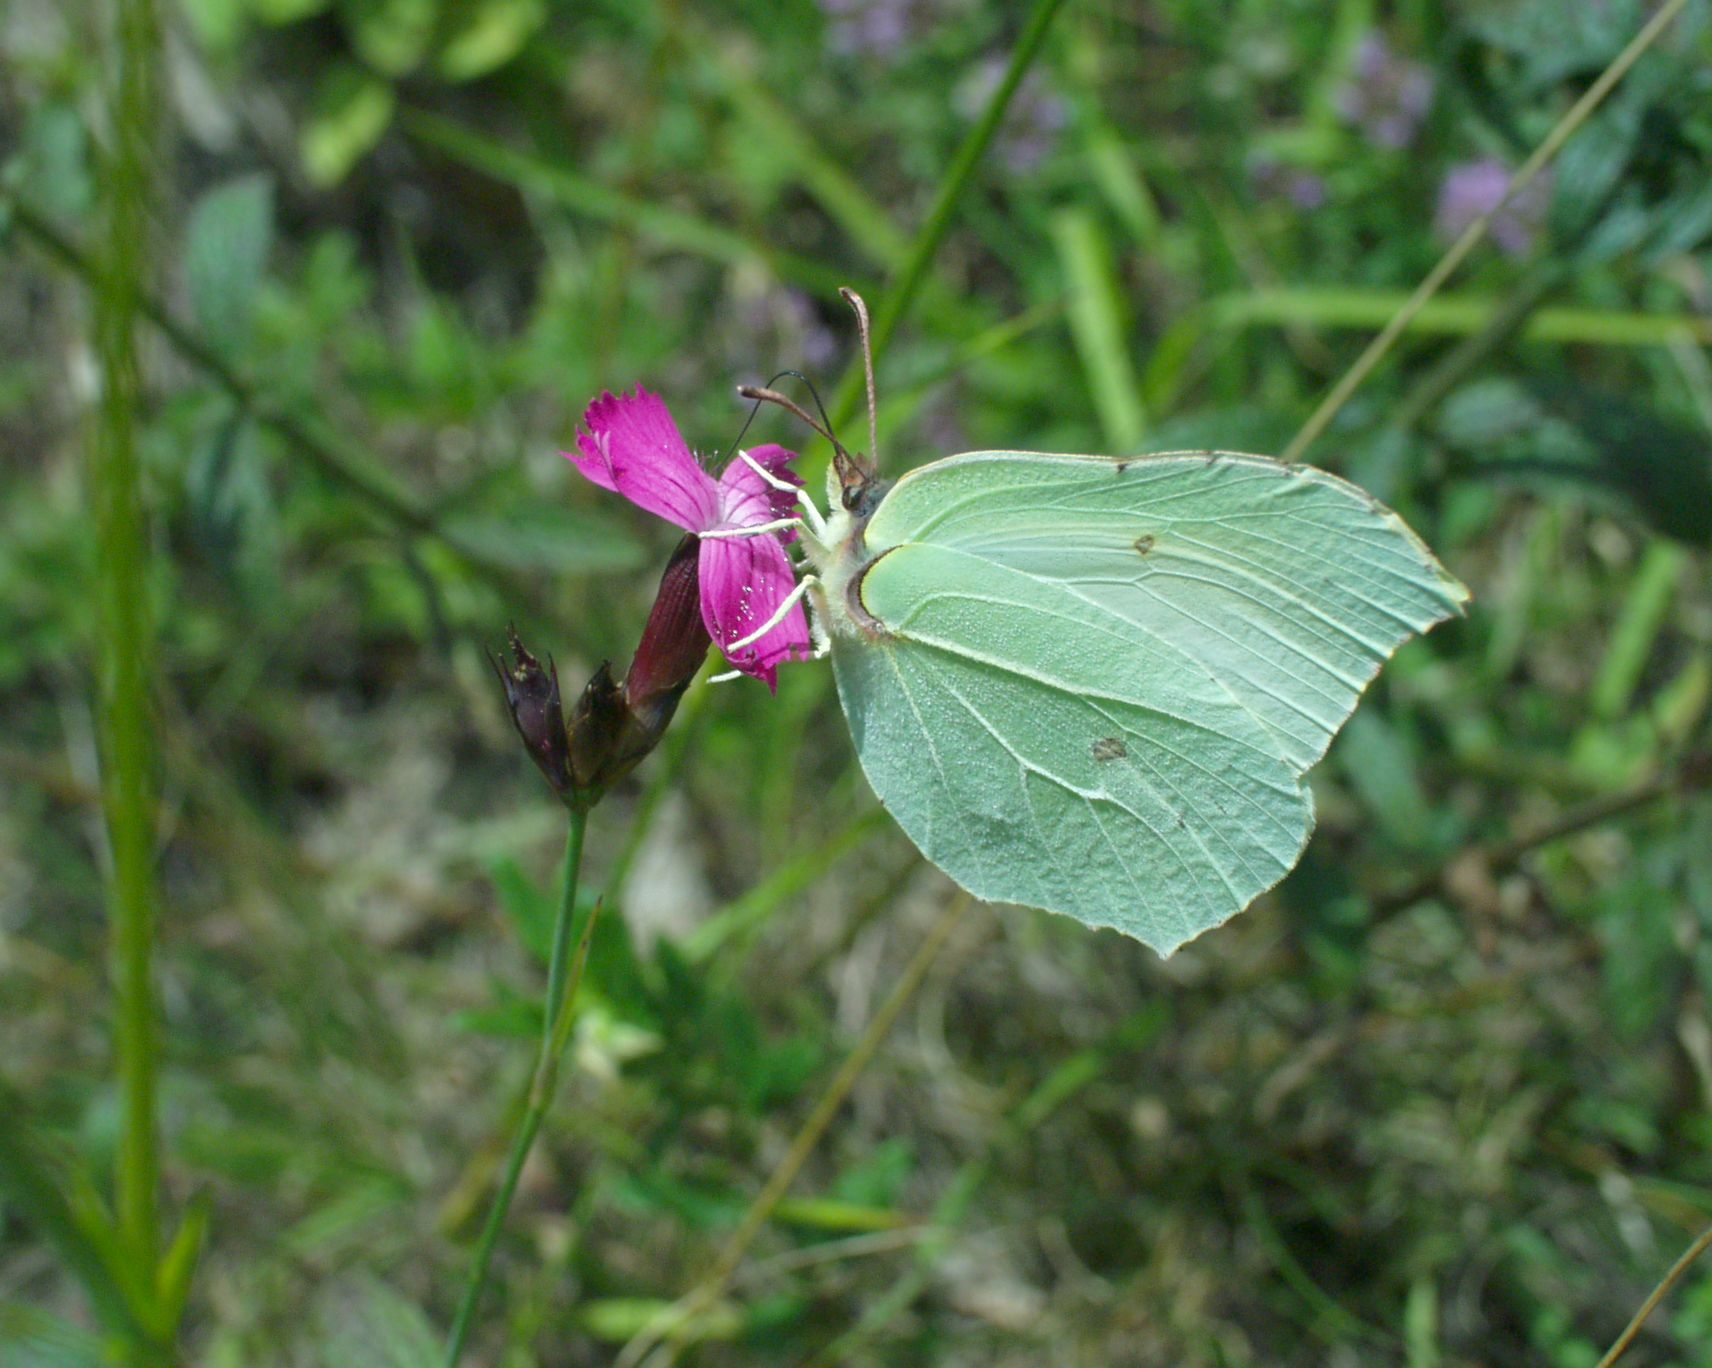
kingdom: Animalia
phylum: Arthropoda
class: Insecta
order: Lepidoptera
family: Pieridae
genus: Gonepteryx
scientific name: Gonepteryx rhamni
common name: Brimstone
